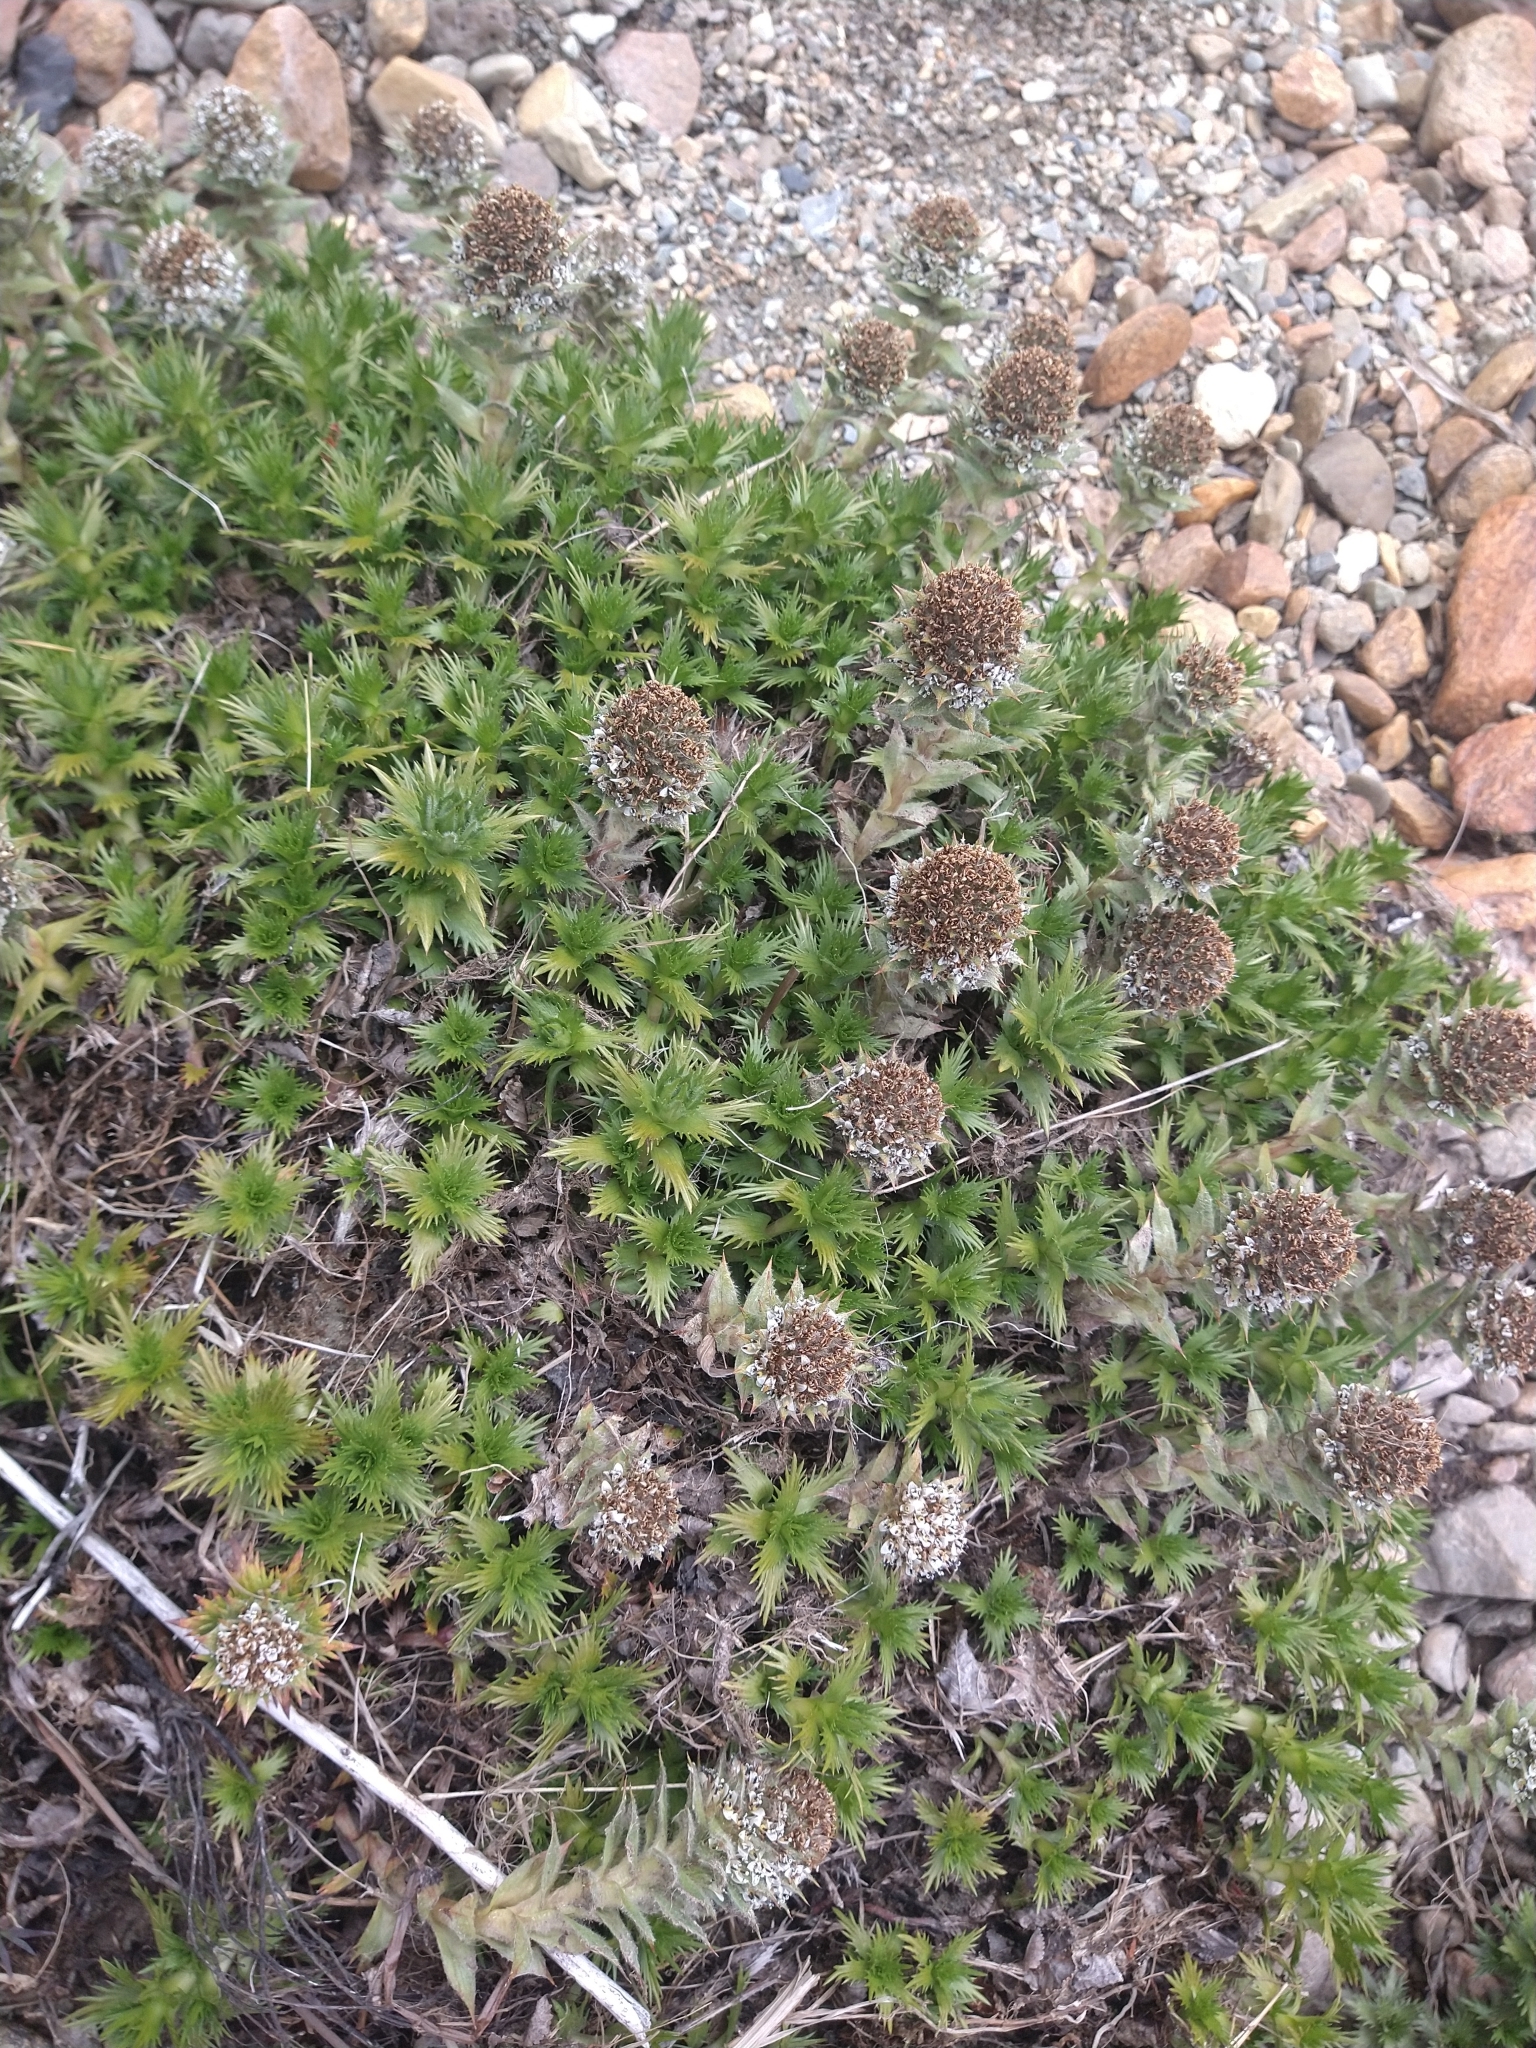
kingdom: Plantae
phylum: Tracheophyta
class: Magnoliopsida
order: Asterales
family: Asteraceae
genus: Nassauvia
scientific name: Nassauvia magellanica
